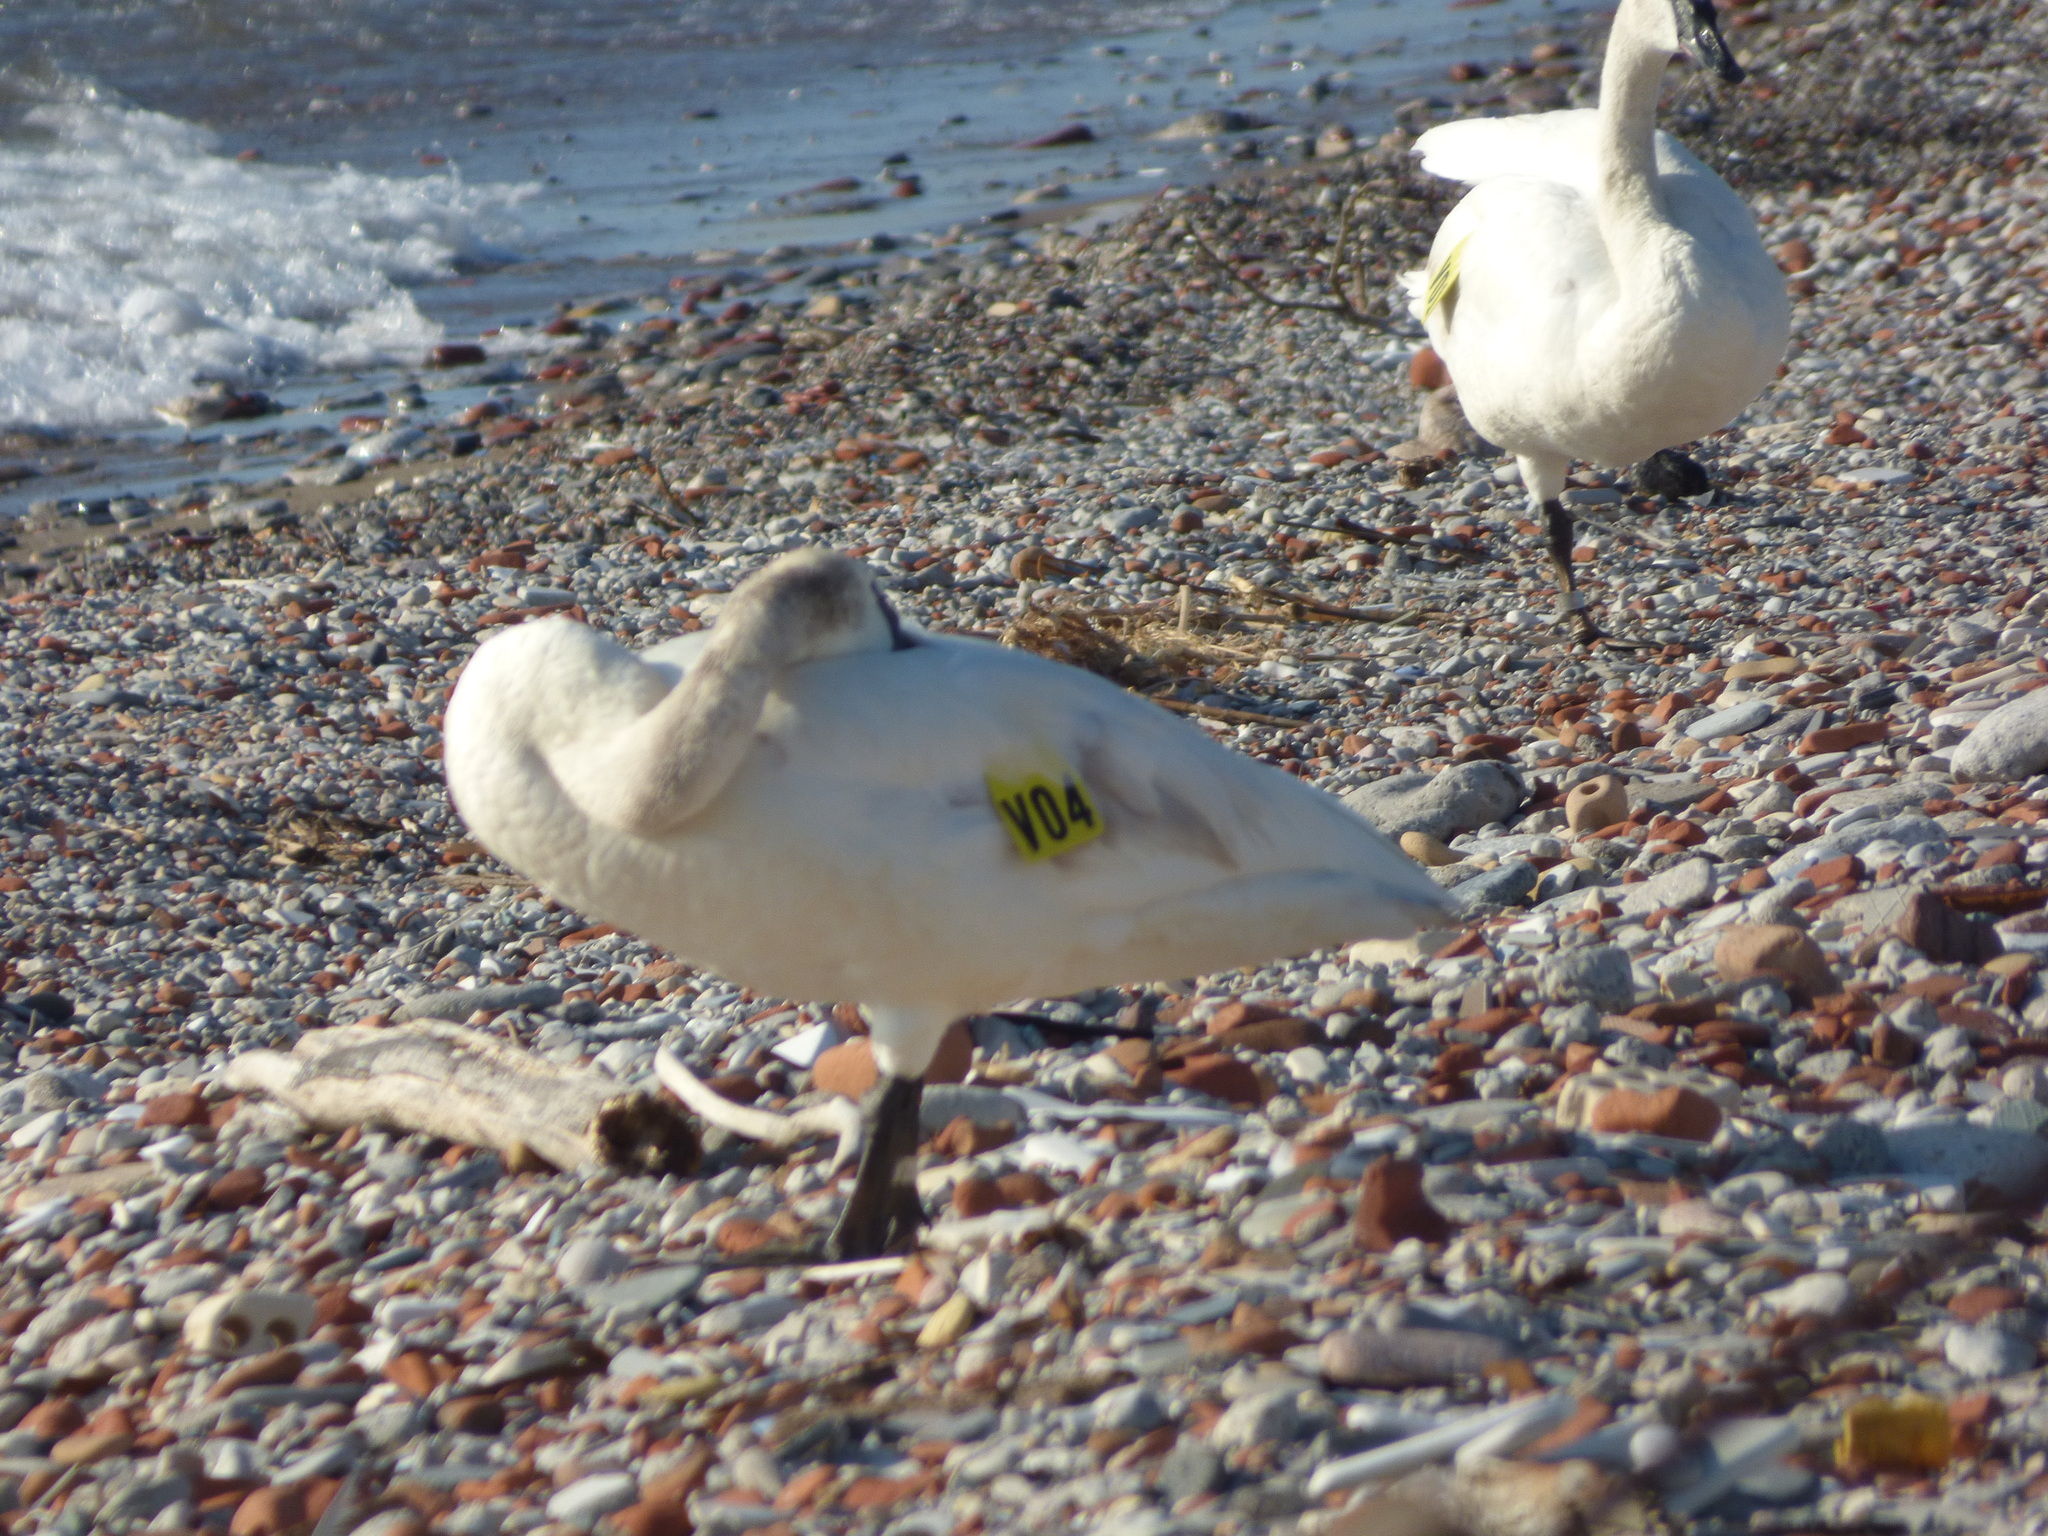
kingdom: Animalia
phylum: Chordata
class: Aves
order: Anseriformes
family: Anatidae
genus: Cygnus
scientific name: Cygnus buccinator
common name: Trumpeter swan
